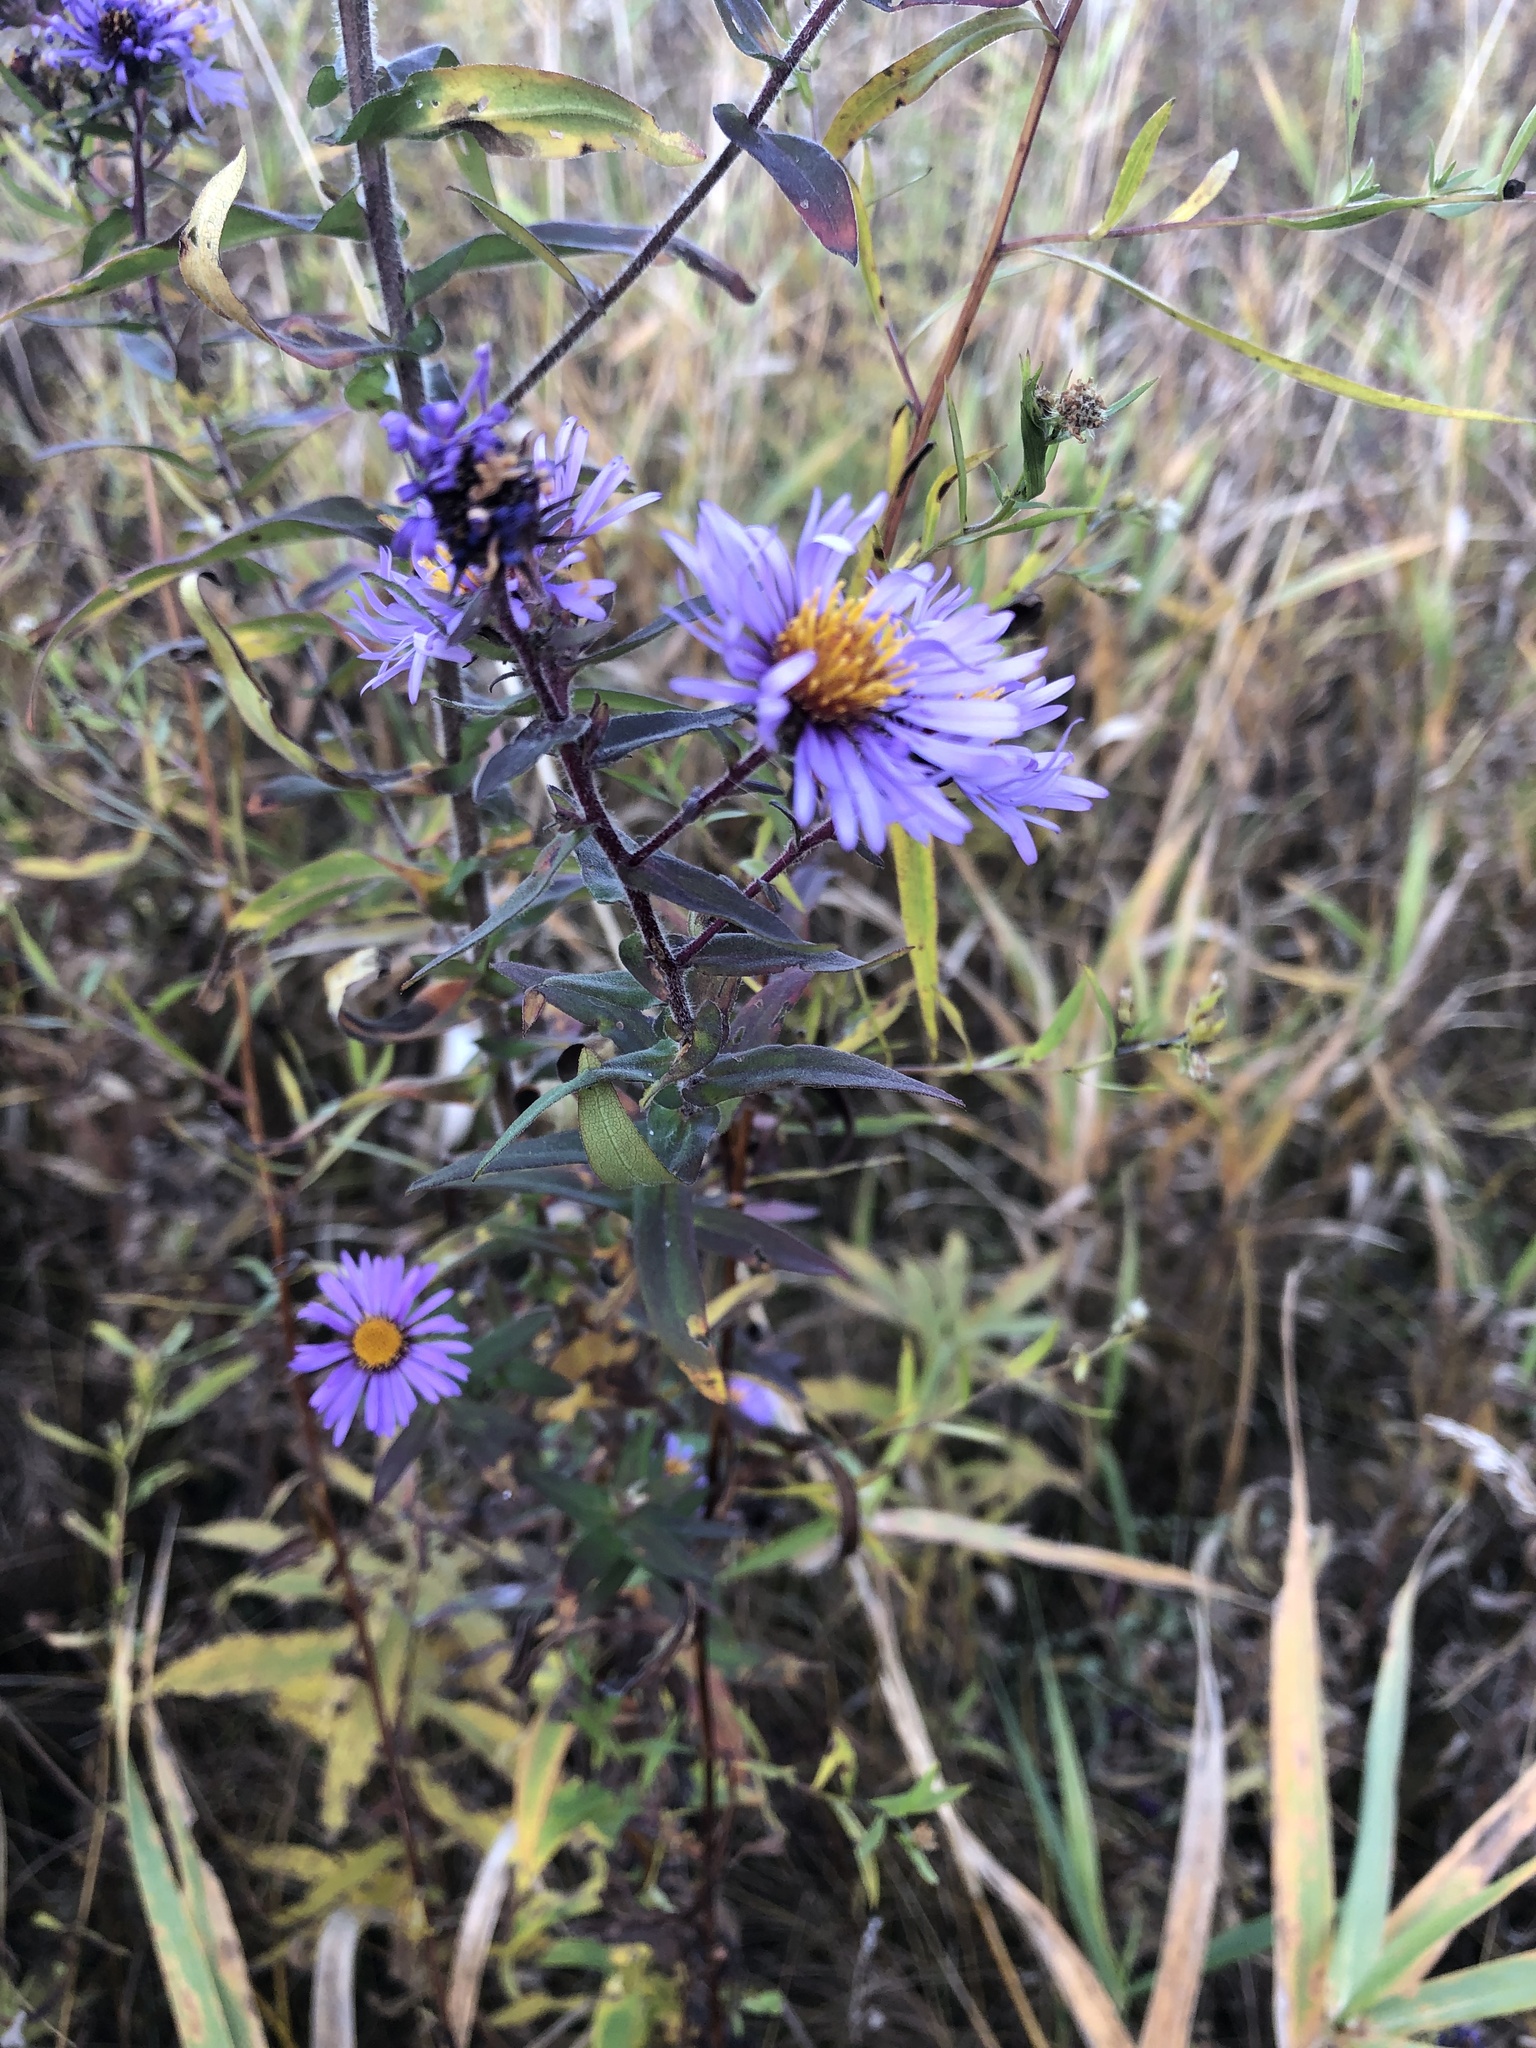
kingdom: Plantae
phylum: Tracheophyta
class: Magnoliopsida
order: Asterales
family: Asteraceae
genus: Symphyotrichum
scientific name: Symphyotrichum novae-angliae
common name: Michaelmas daisy
